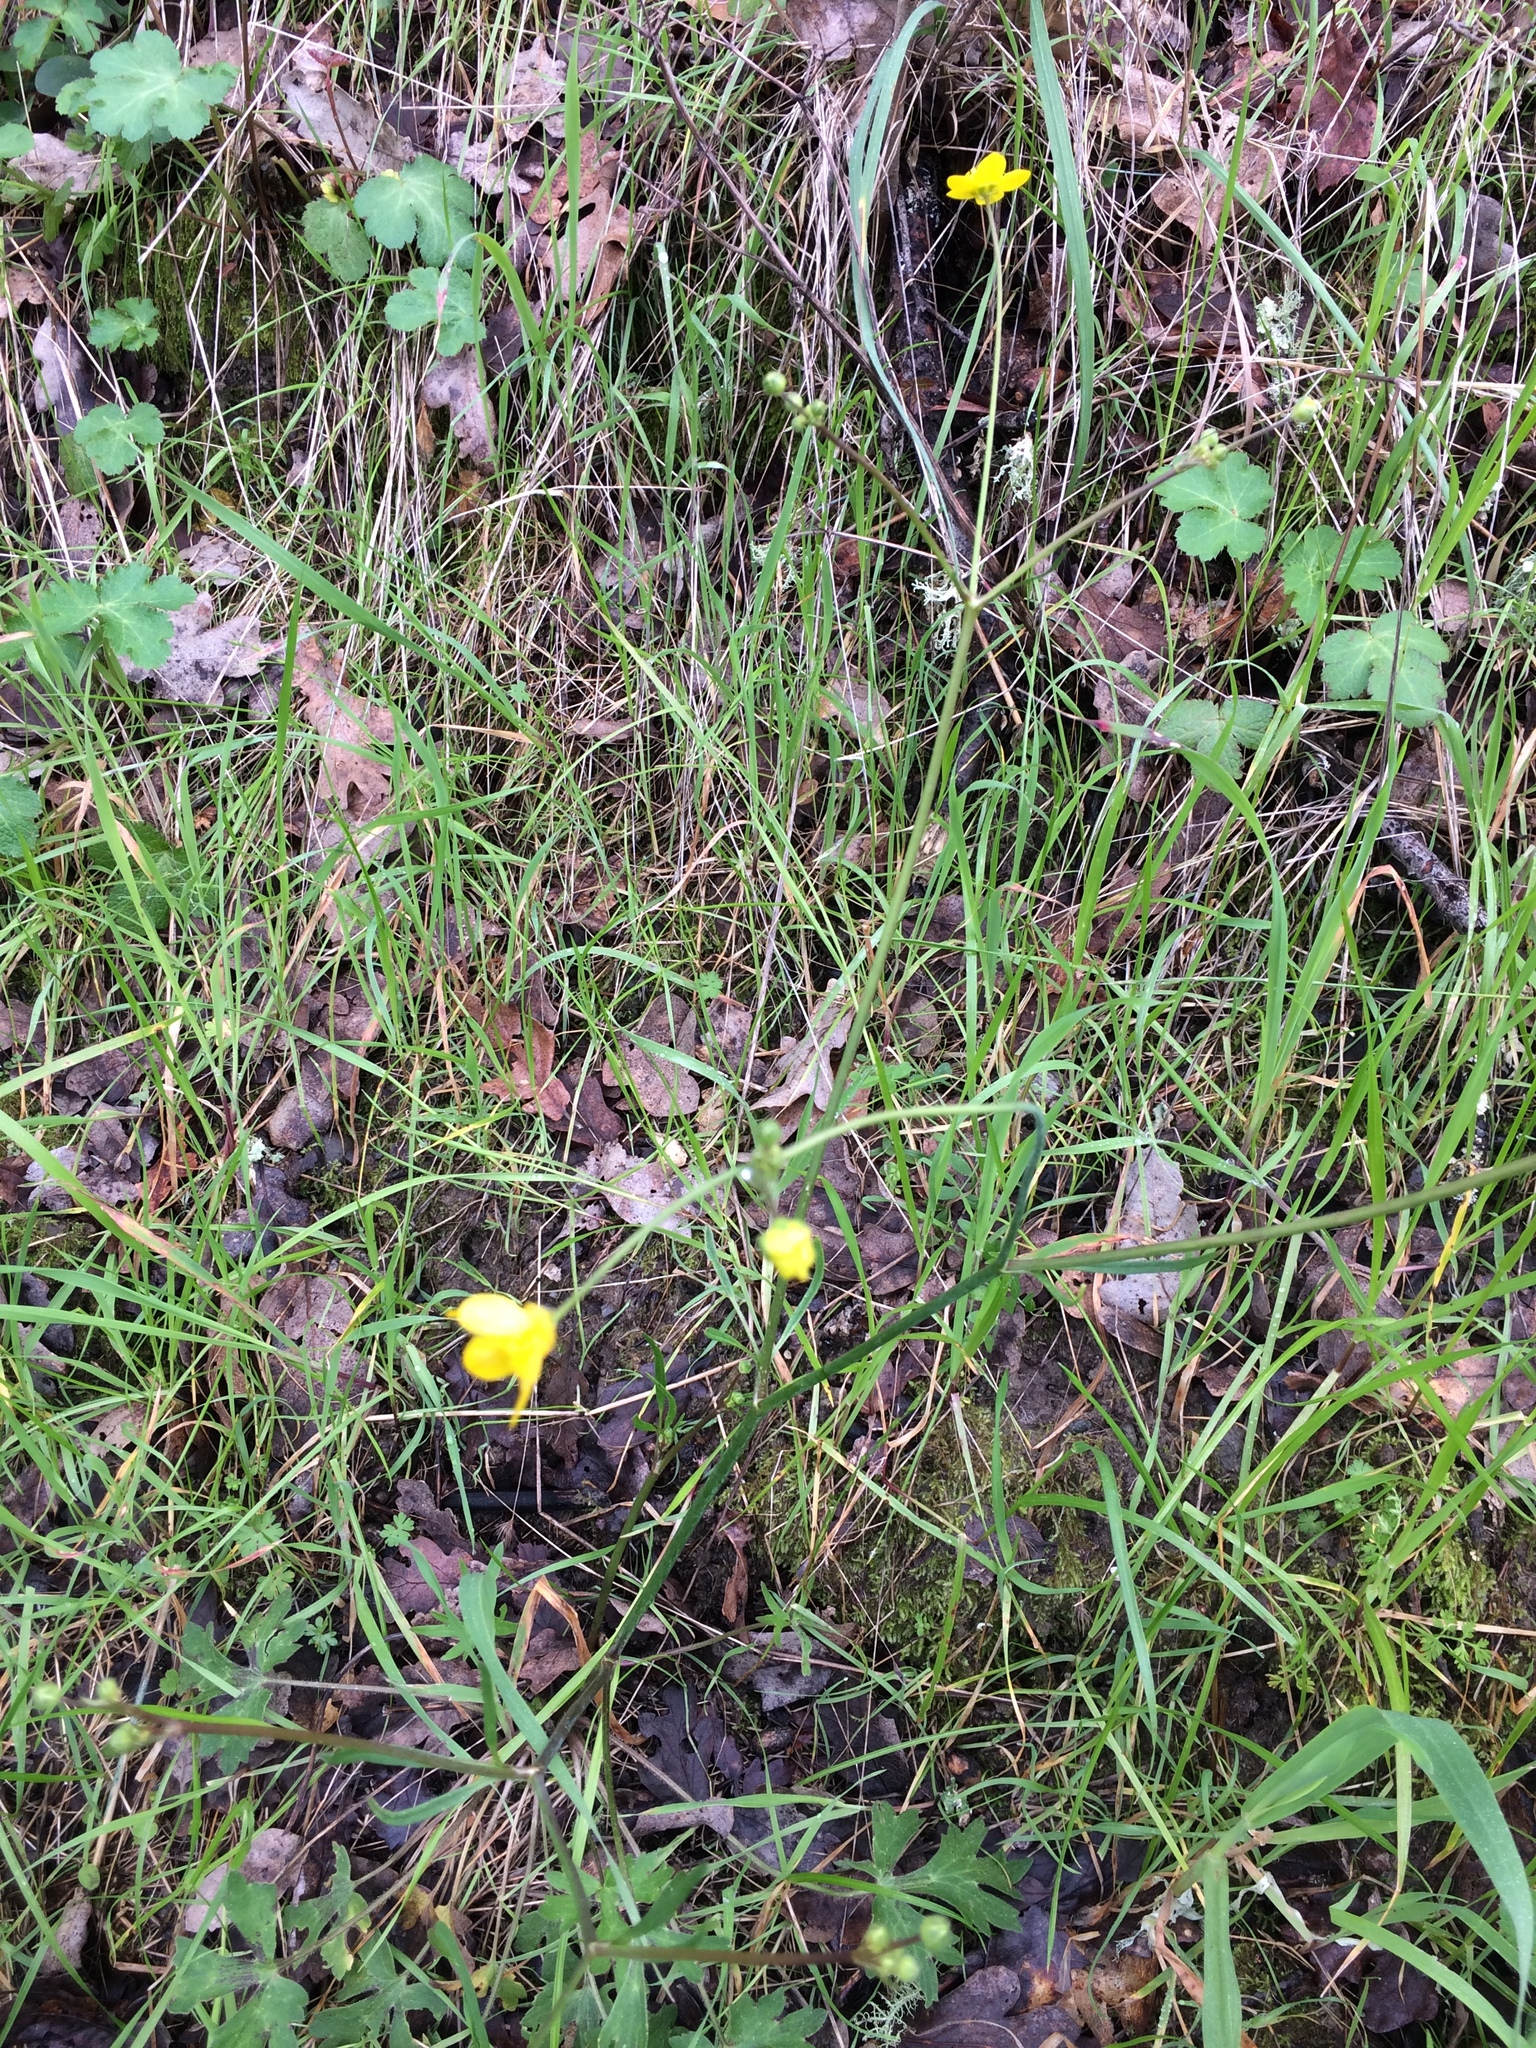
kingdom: Plantae
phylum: Tracheophyta
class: Magnoliopsida
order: Ranunculales
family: Ranunculaceae
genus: Ranunculus
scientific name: Ranunculus occidentalis
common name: Western buttercup
